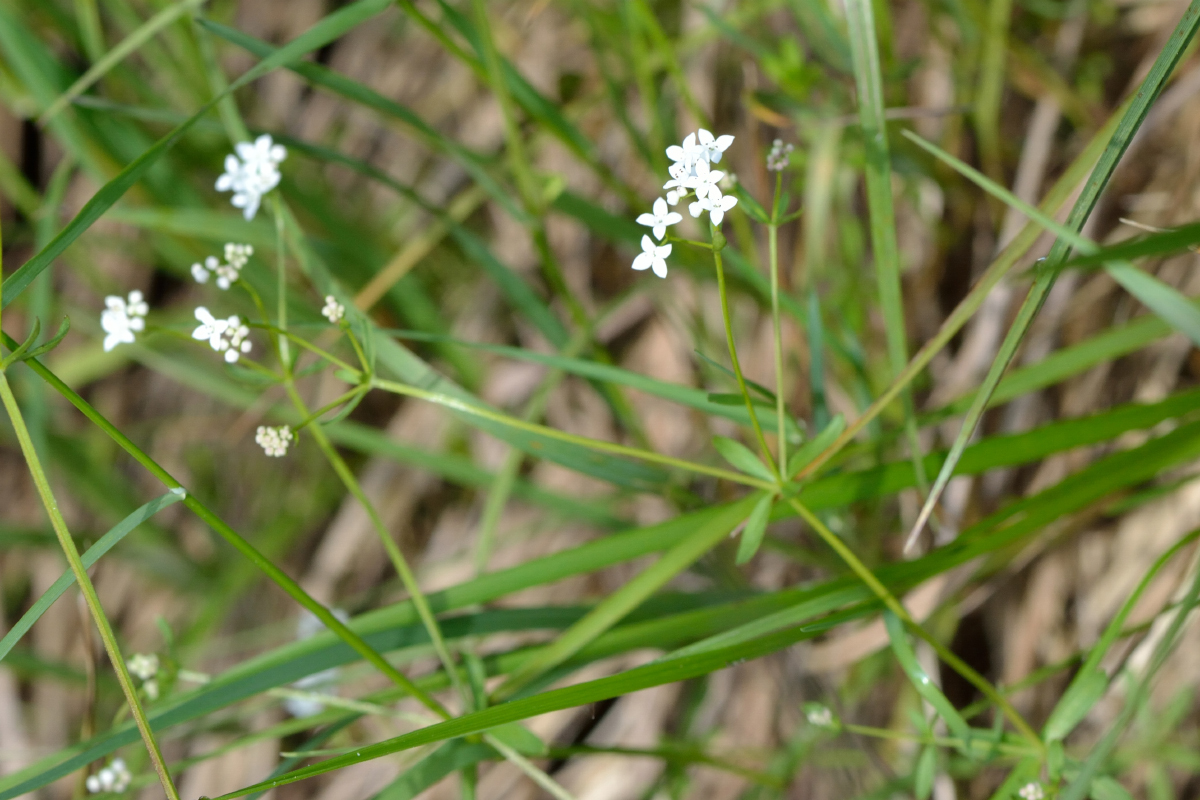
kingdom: Plantae
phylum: Tracheophyta
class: Magnoliopsida
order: Gentianales
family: Rubiaceae
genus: Galium
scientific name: Galium palustre
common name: Common marsh-bedstraw
